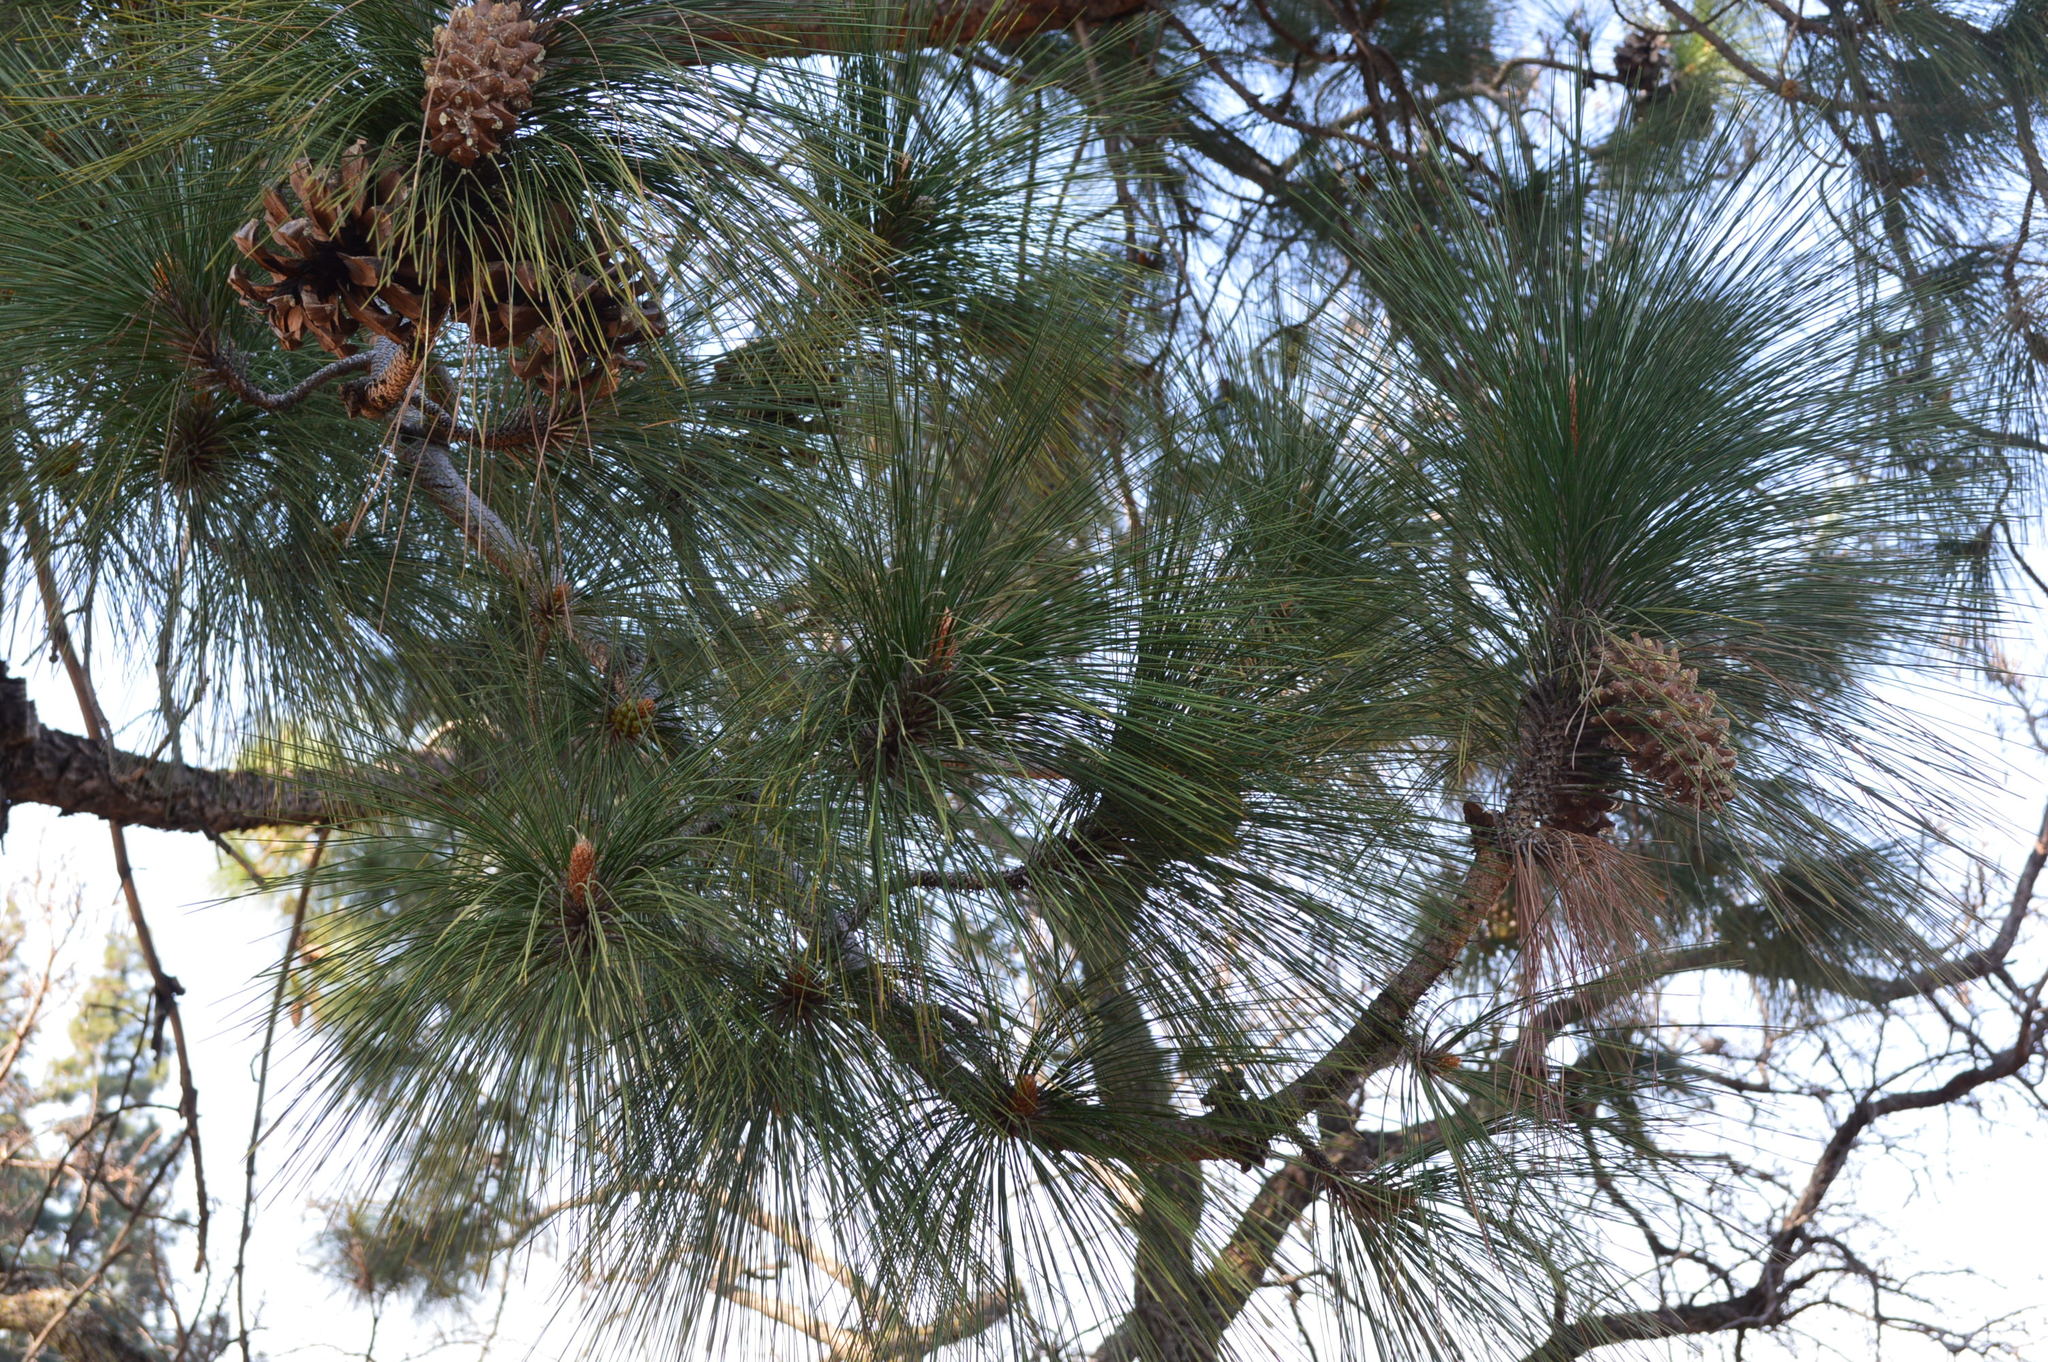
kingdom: Plantae
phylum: Tracheophyta
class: Pinopsida
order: Pinales
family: Pinaceae
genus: Pinus
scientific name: Pinus roxburghii
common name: Chir pine
